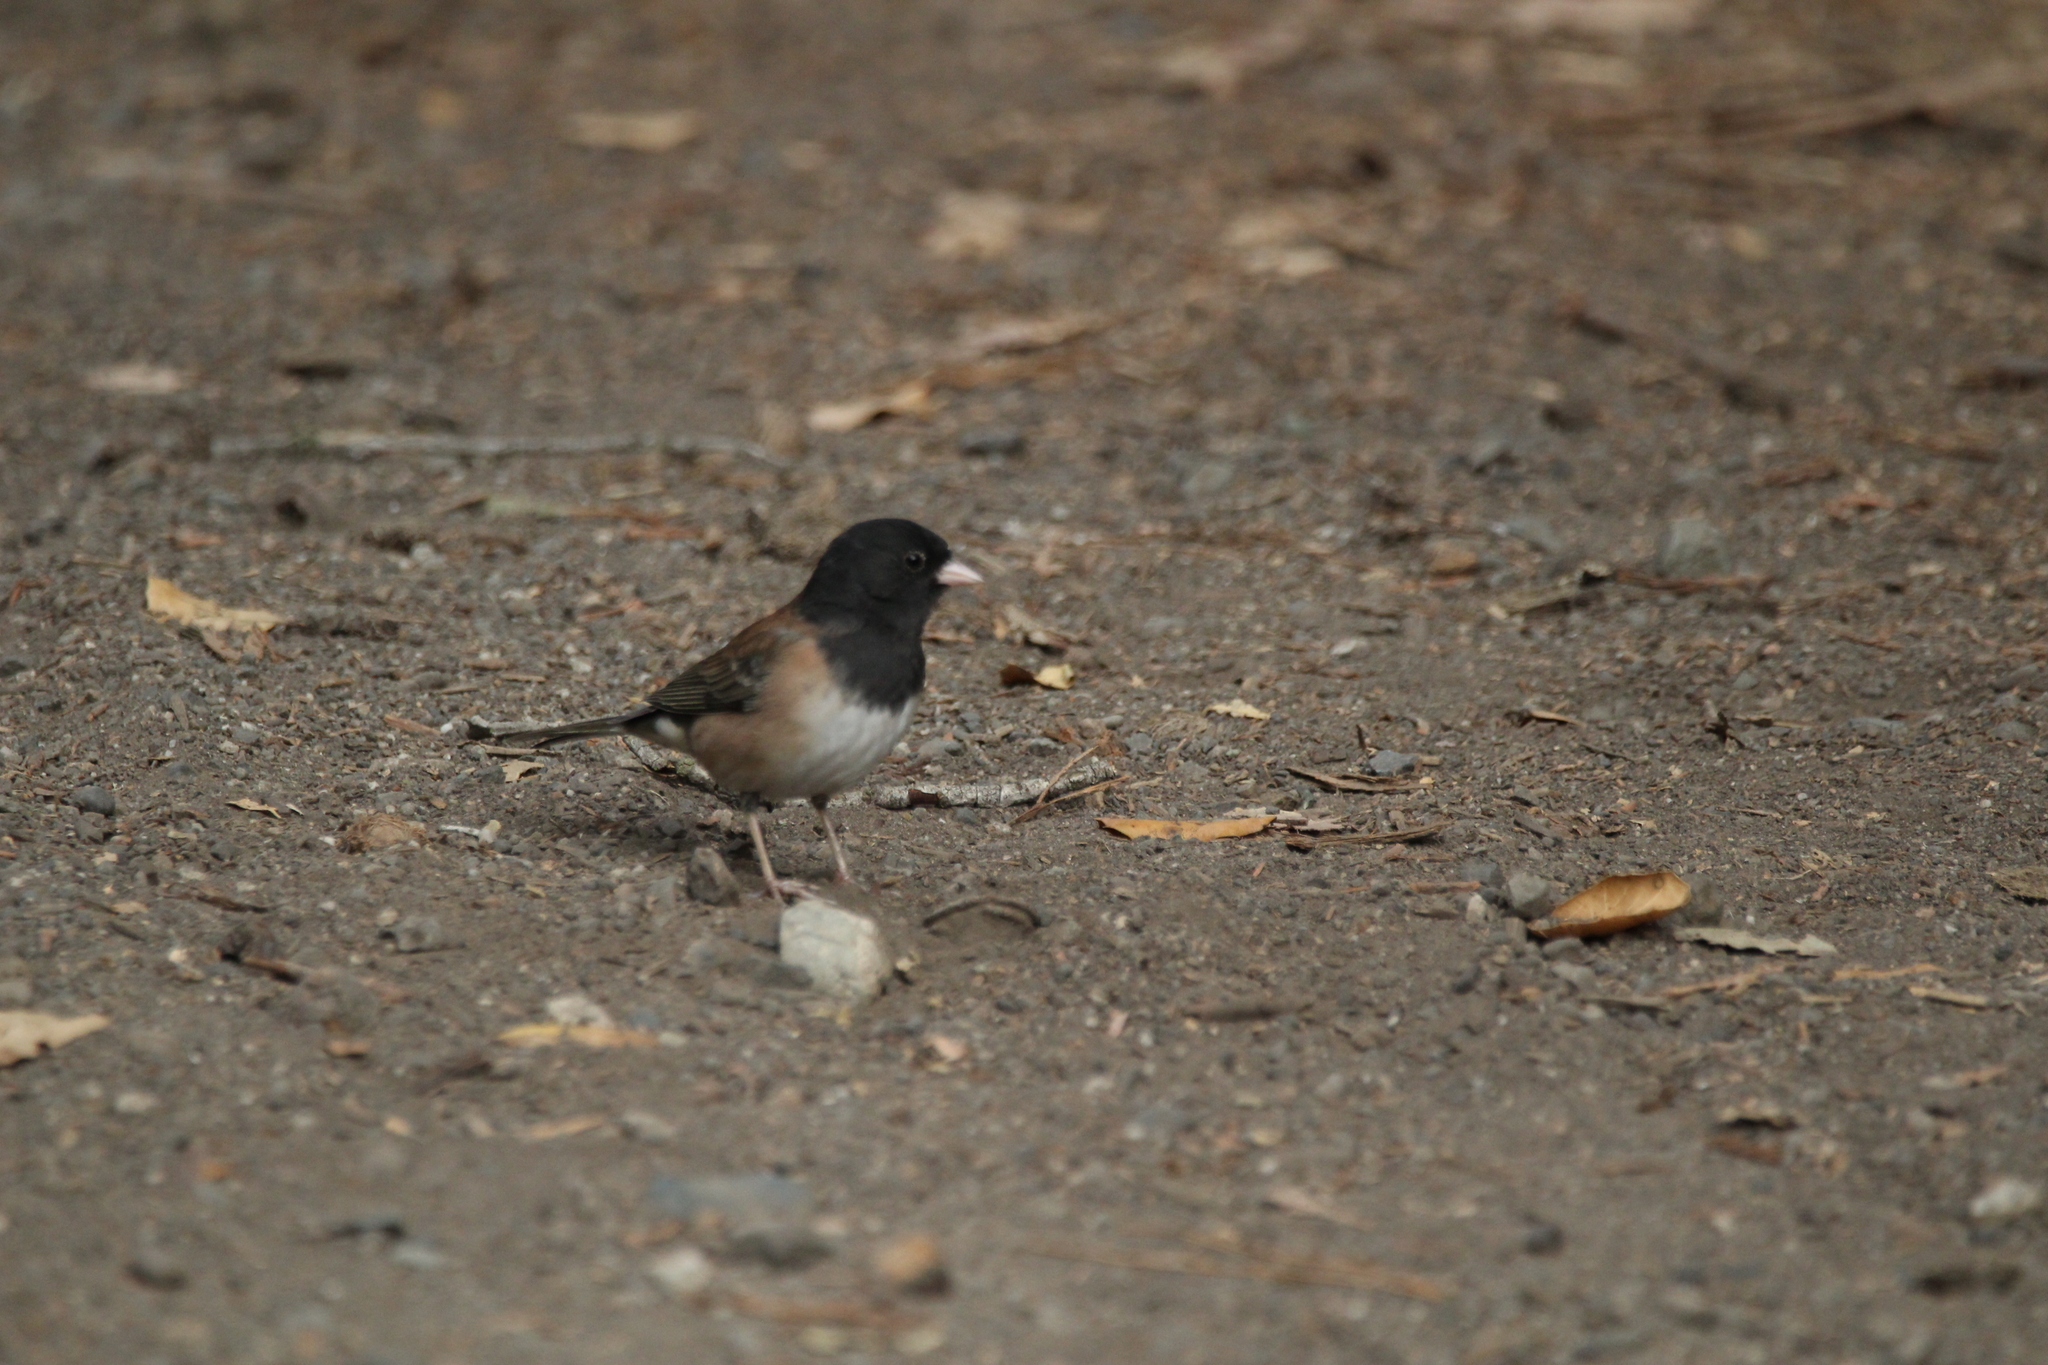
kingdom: Animalia
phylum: Chordata
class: Aves
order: Passeriformes
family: Passerellidae
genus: Junco
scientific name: Junco hyemalis
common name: Dark-eyed junco
